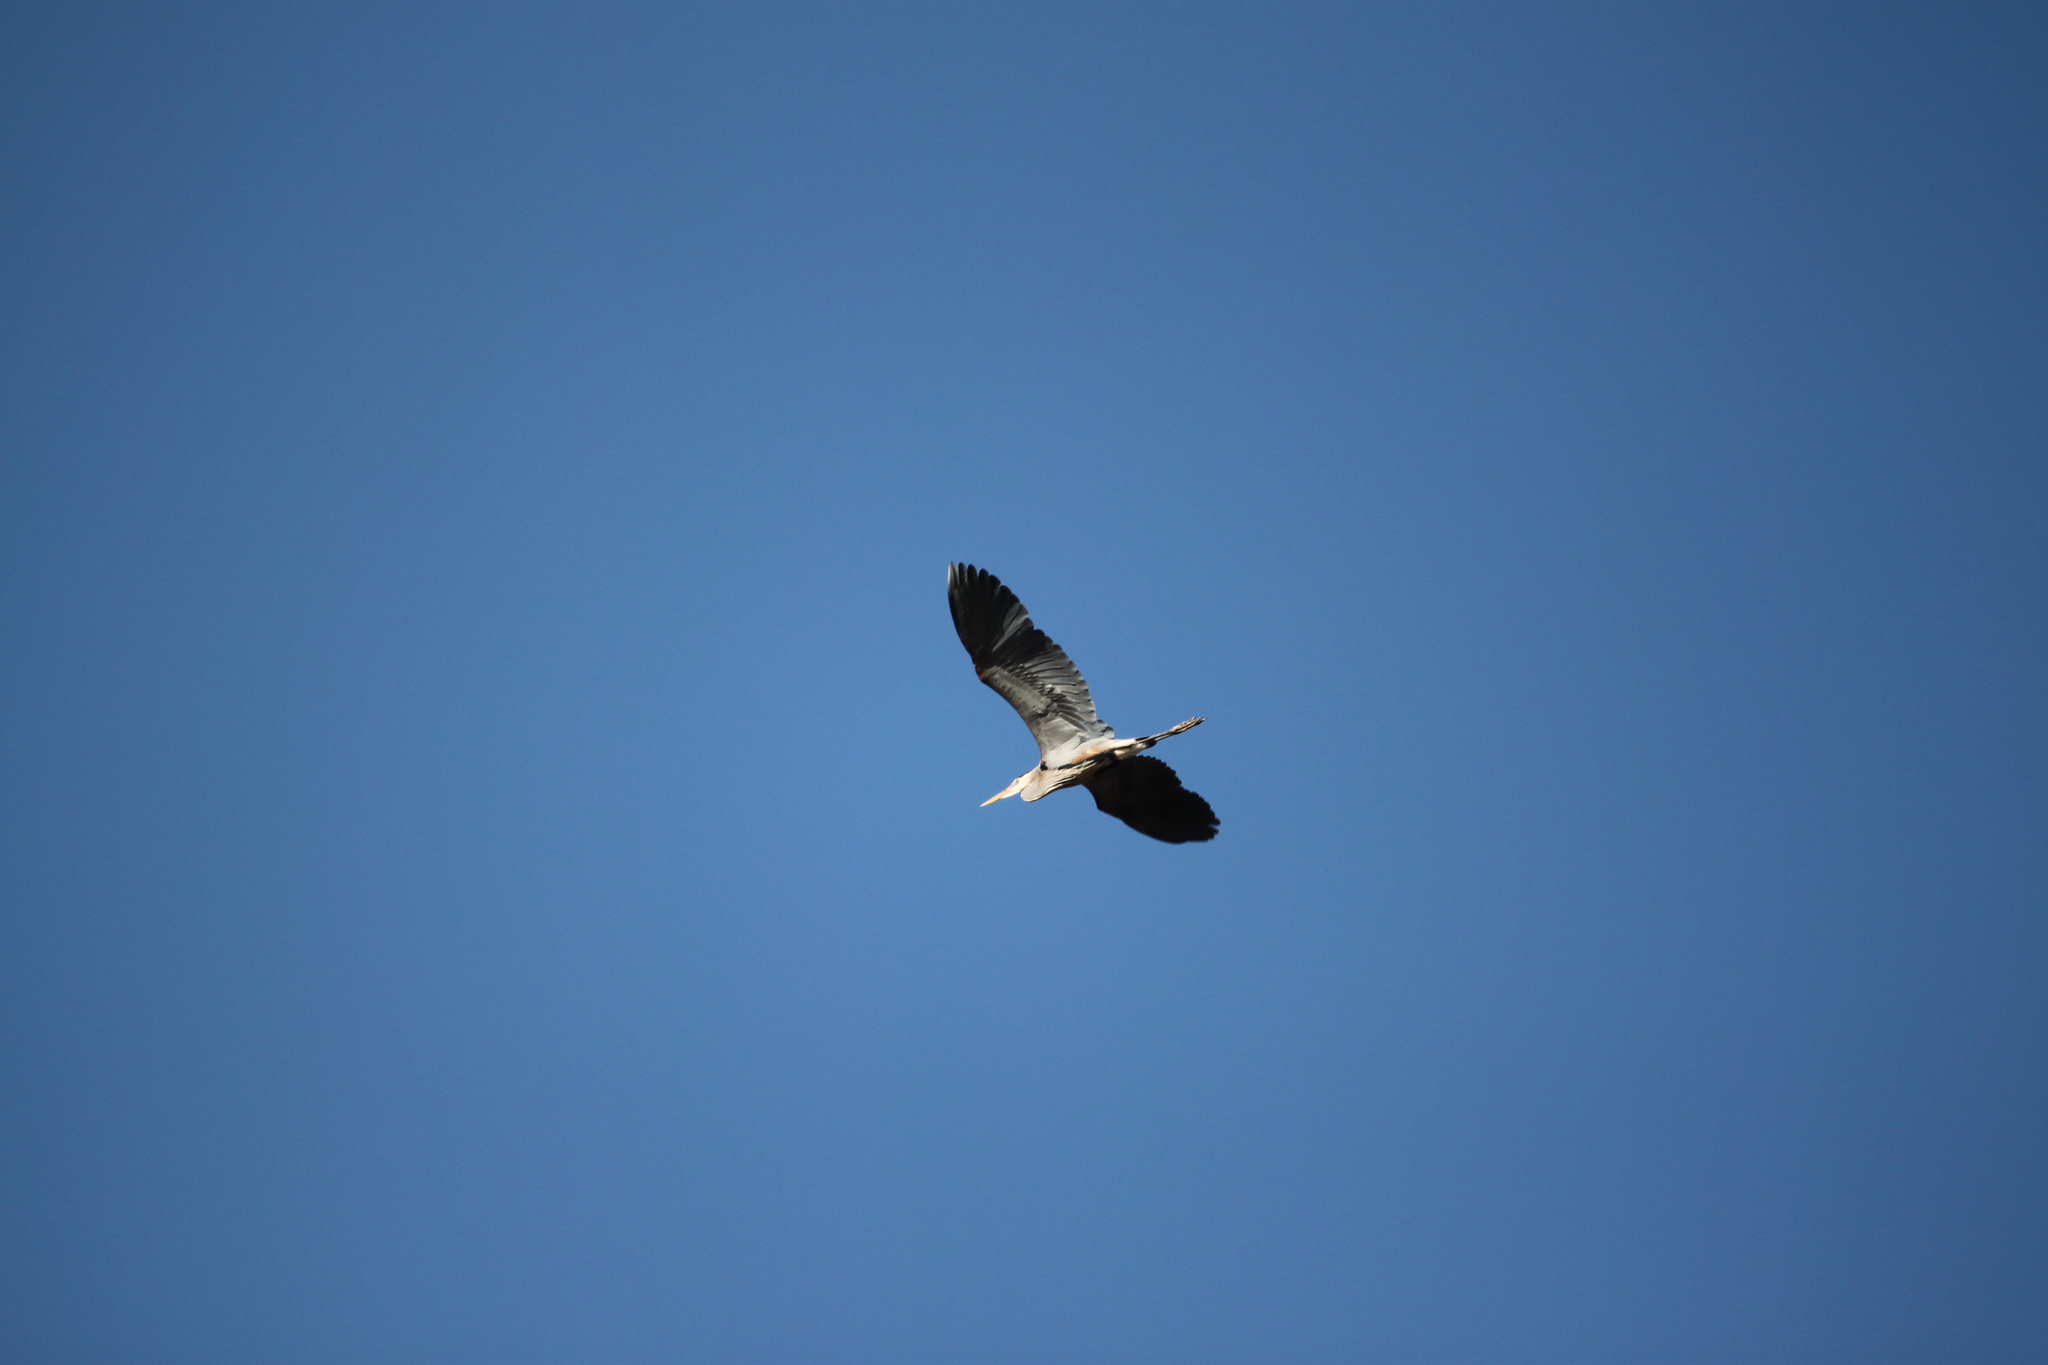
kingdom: Animalia
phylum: Chordata
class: Aves
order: Pelecaniformes
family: Ardeidae
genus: Ardea
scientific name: Ardea herodias
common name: Great blue heron
